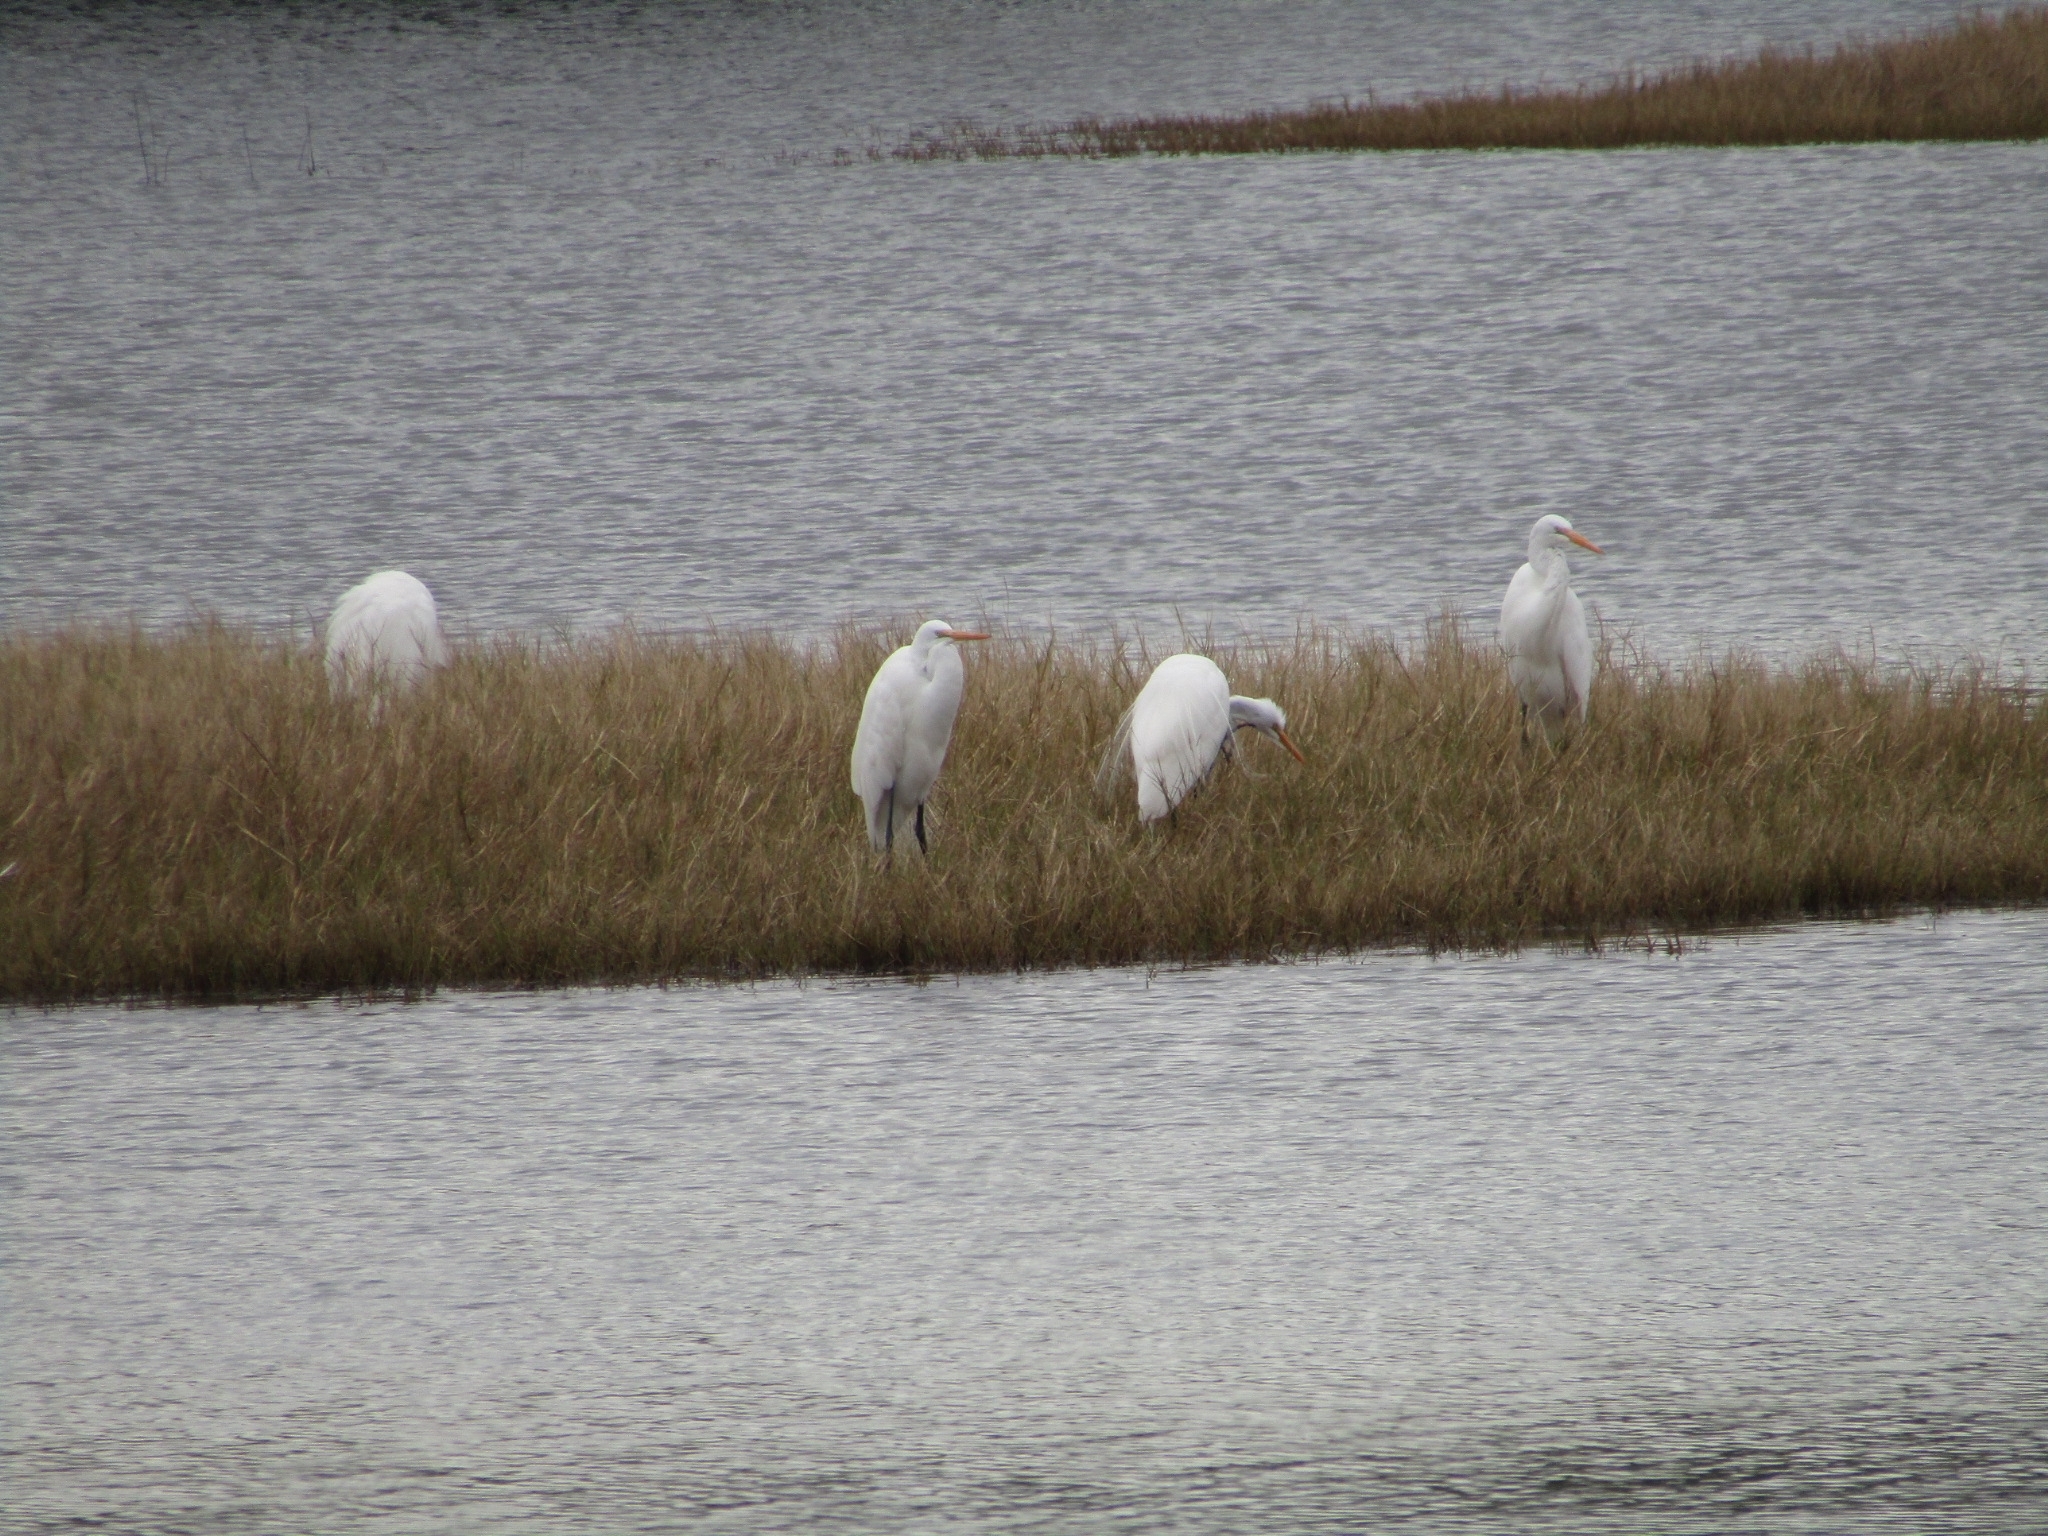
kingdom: Animalia
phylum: Chordata
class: Aves
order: Pelecaniformes
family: Ardeidae
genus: Ardea
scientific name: Ardea alba
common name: Great egret
